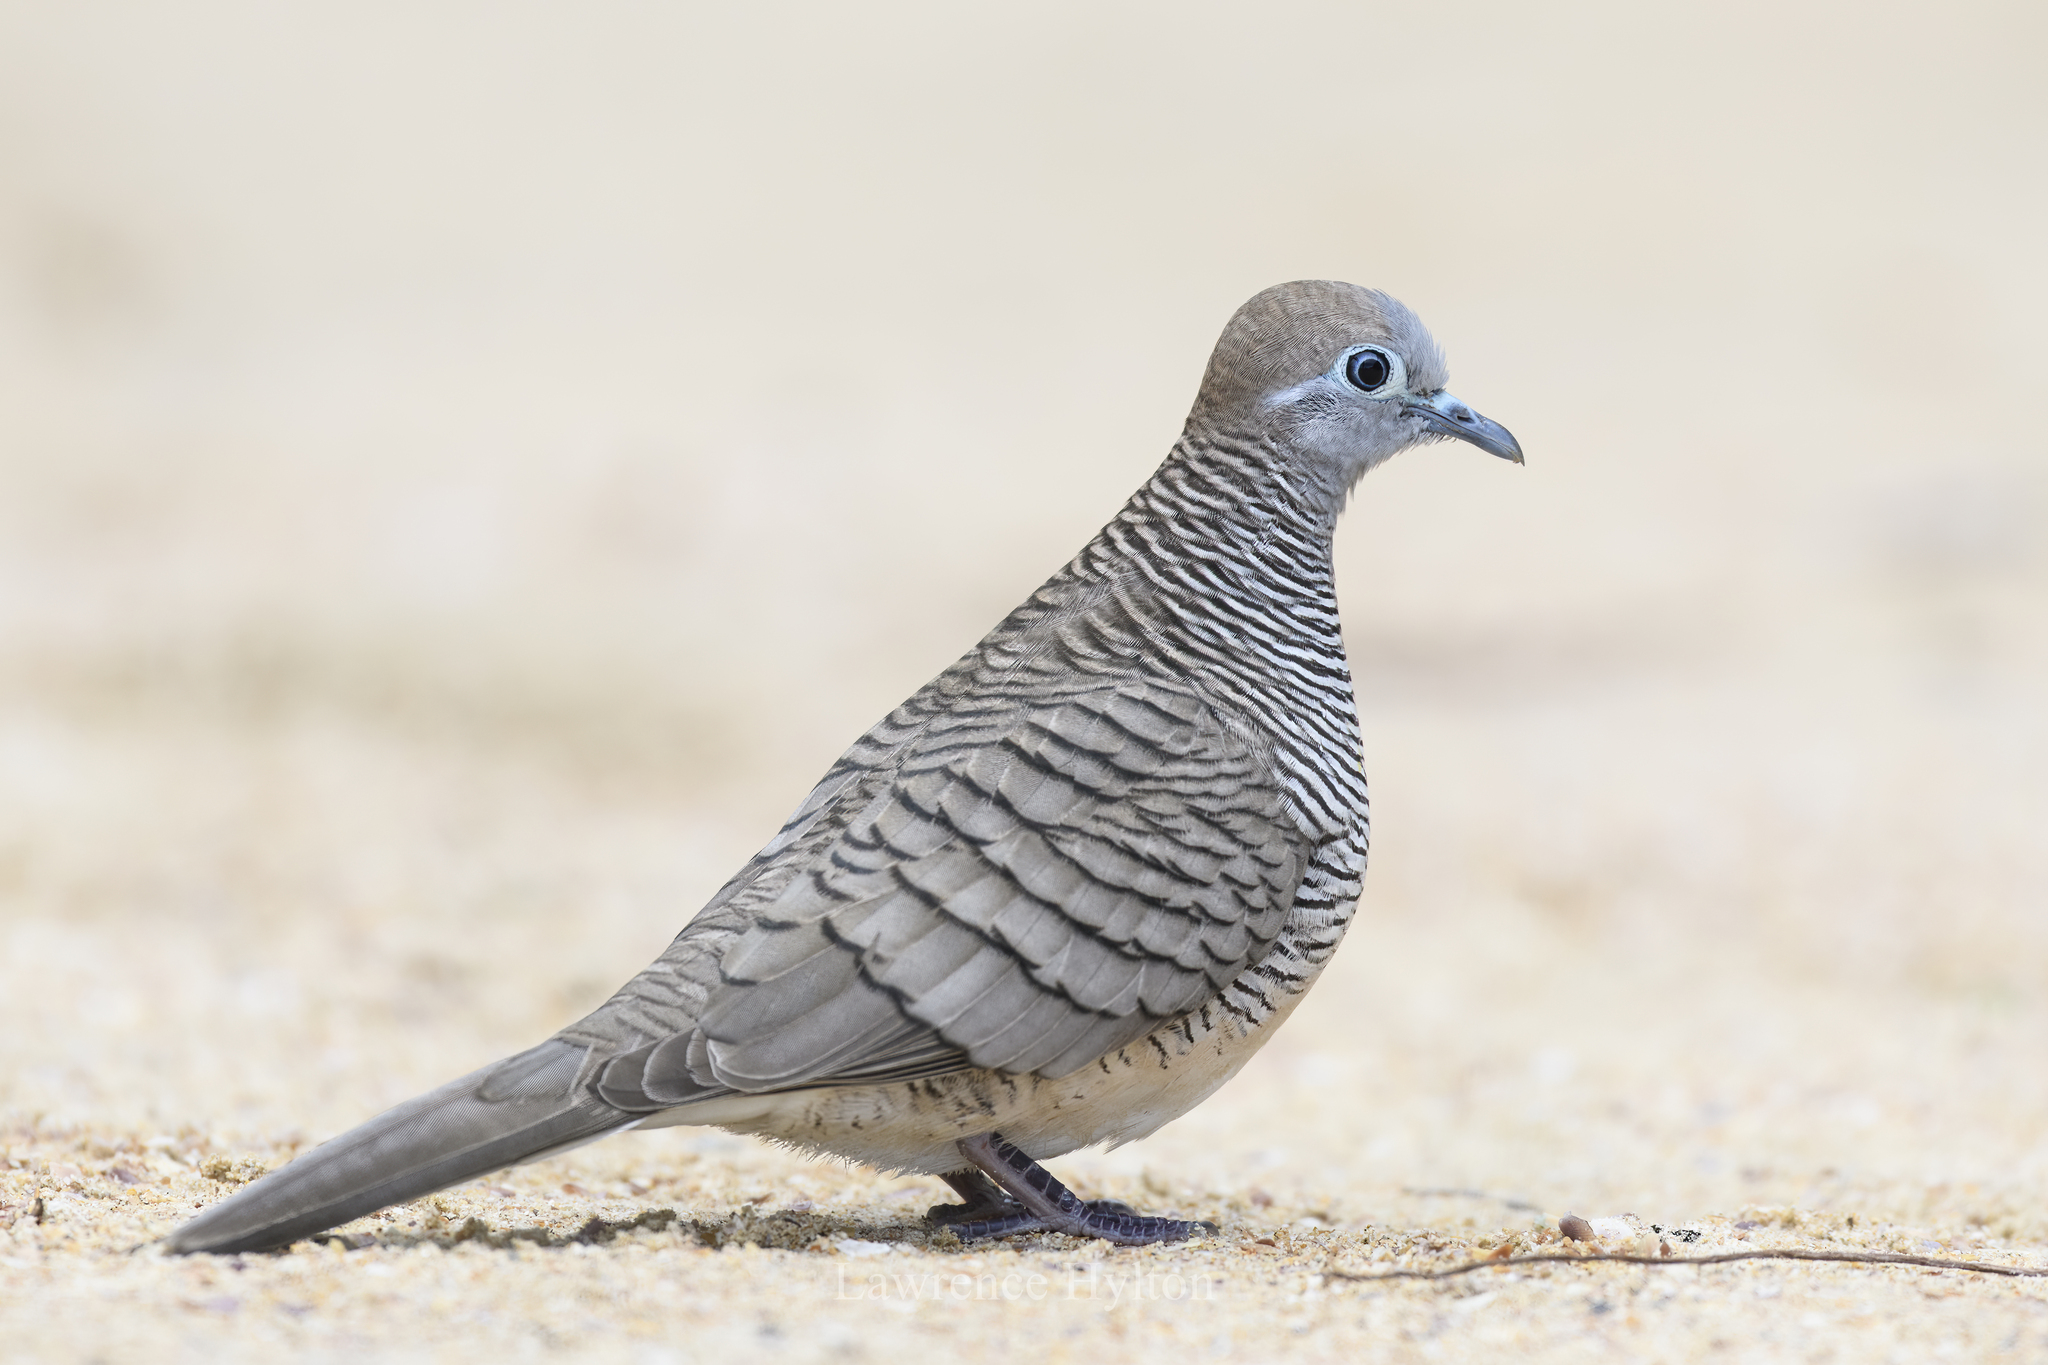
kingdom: Animalia
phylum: Chordata
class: Aves
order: Columbiformes
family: Columbidae
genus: Geopelia
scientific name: Geopelia striata
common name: Zebra dove
